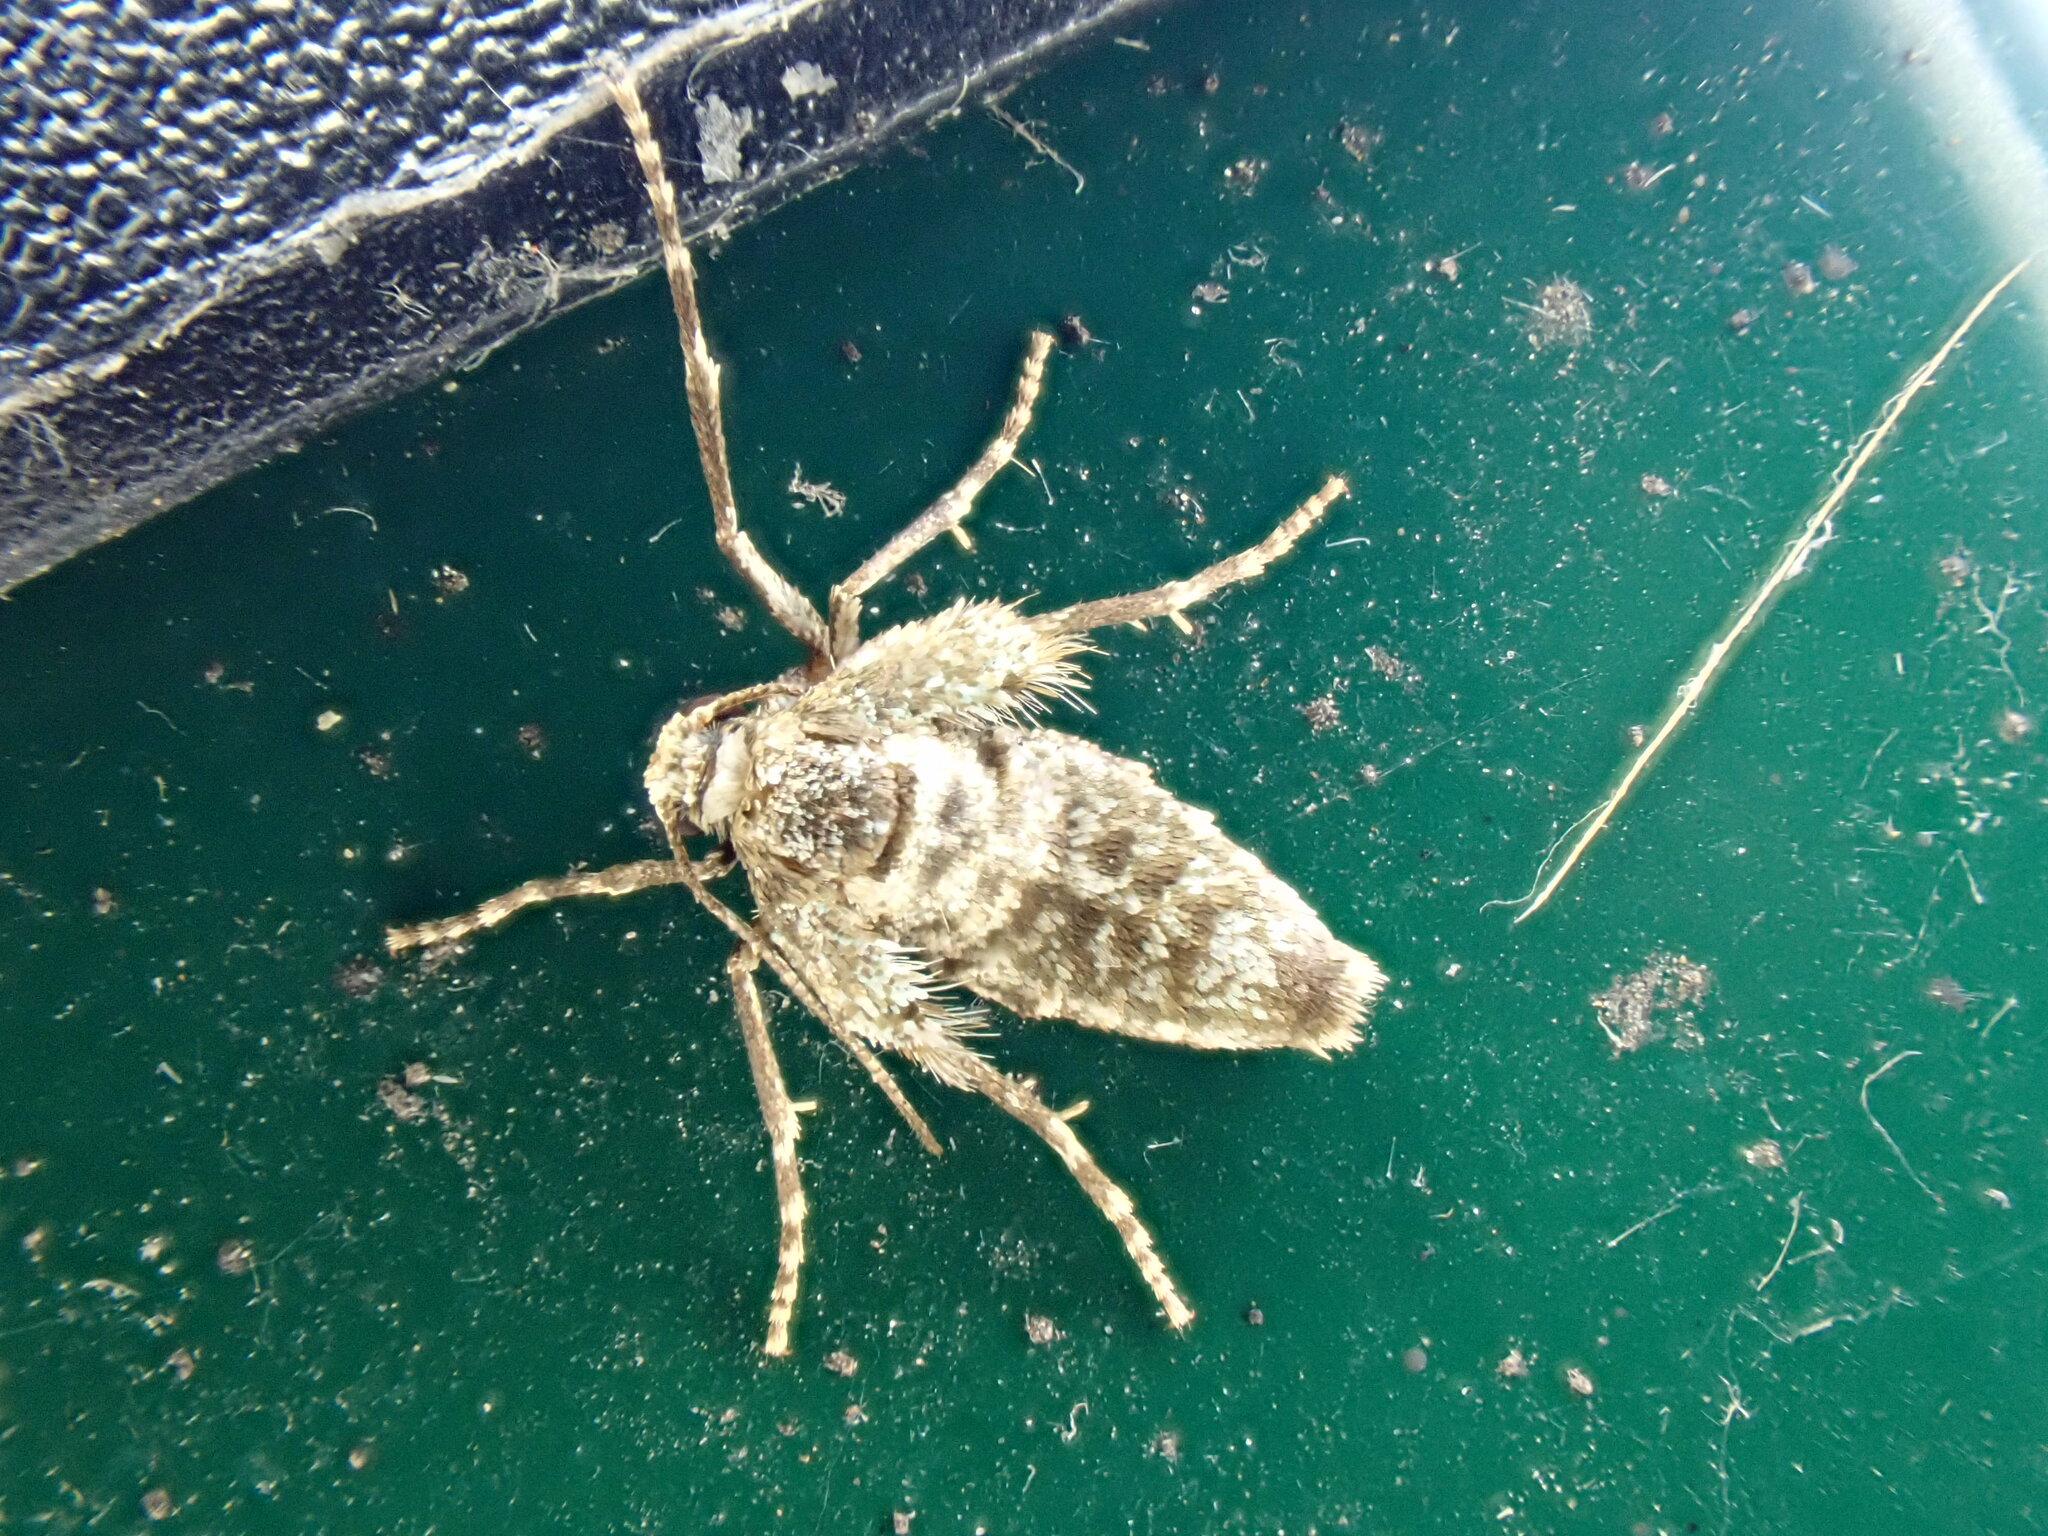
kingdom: Animalia
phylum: Arthropoda
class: Insecta
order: Lepidoptera
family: Geometridae
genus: Operophtera
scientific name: Operophtera brumata
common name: Winter moth
